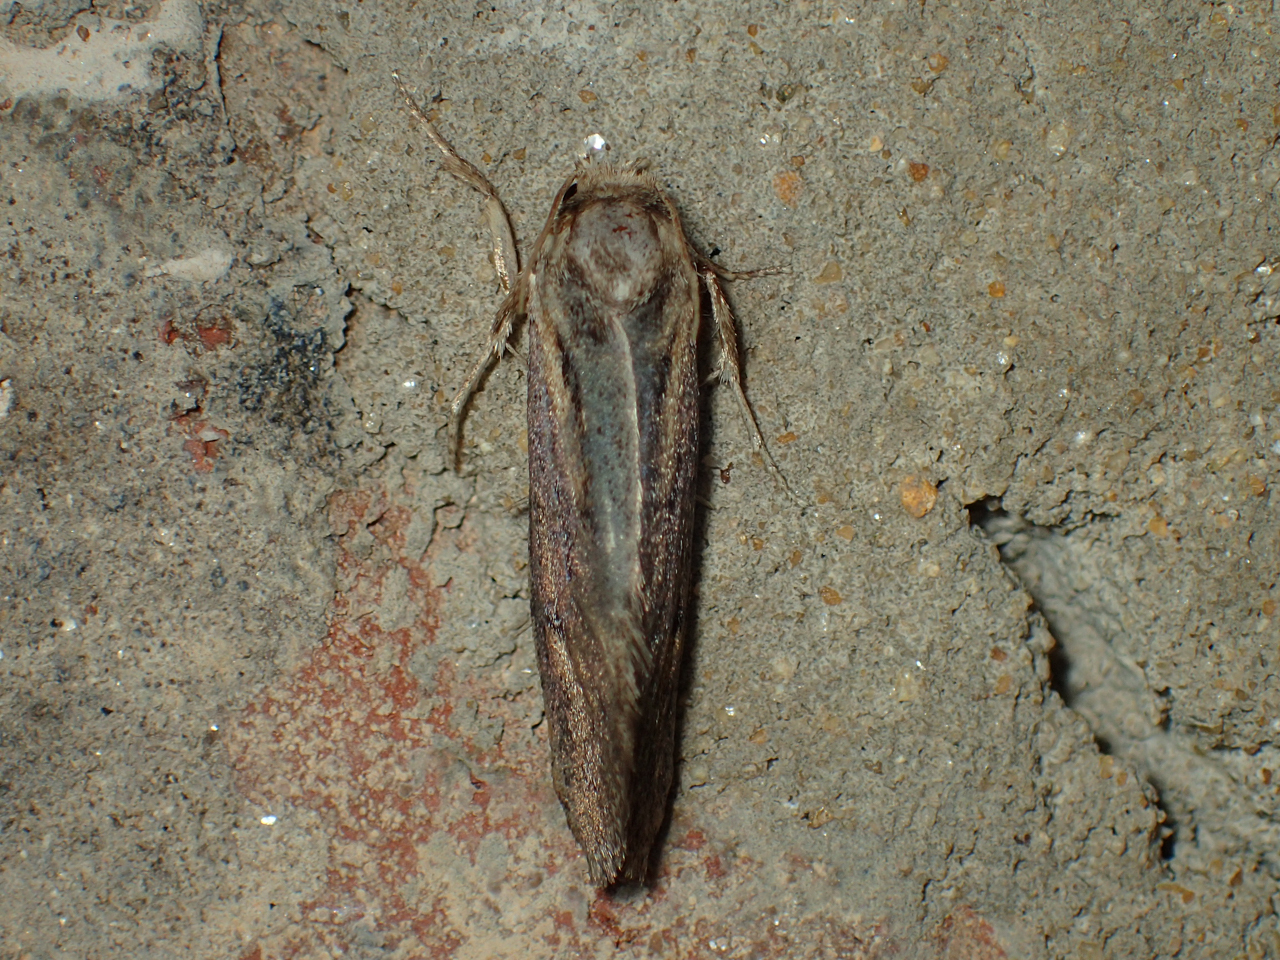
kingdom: Animalia
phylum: Arthropoda
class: Insecta
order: Lepidoptera
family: Tineidae
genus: Acrolophus
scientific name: Acrolophus popeanella
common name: Clemens' grass tubeworm moth
